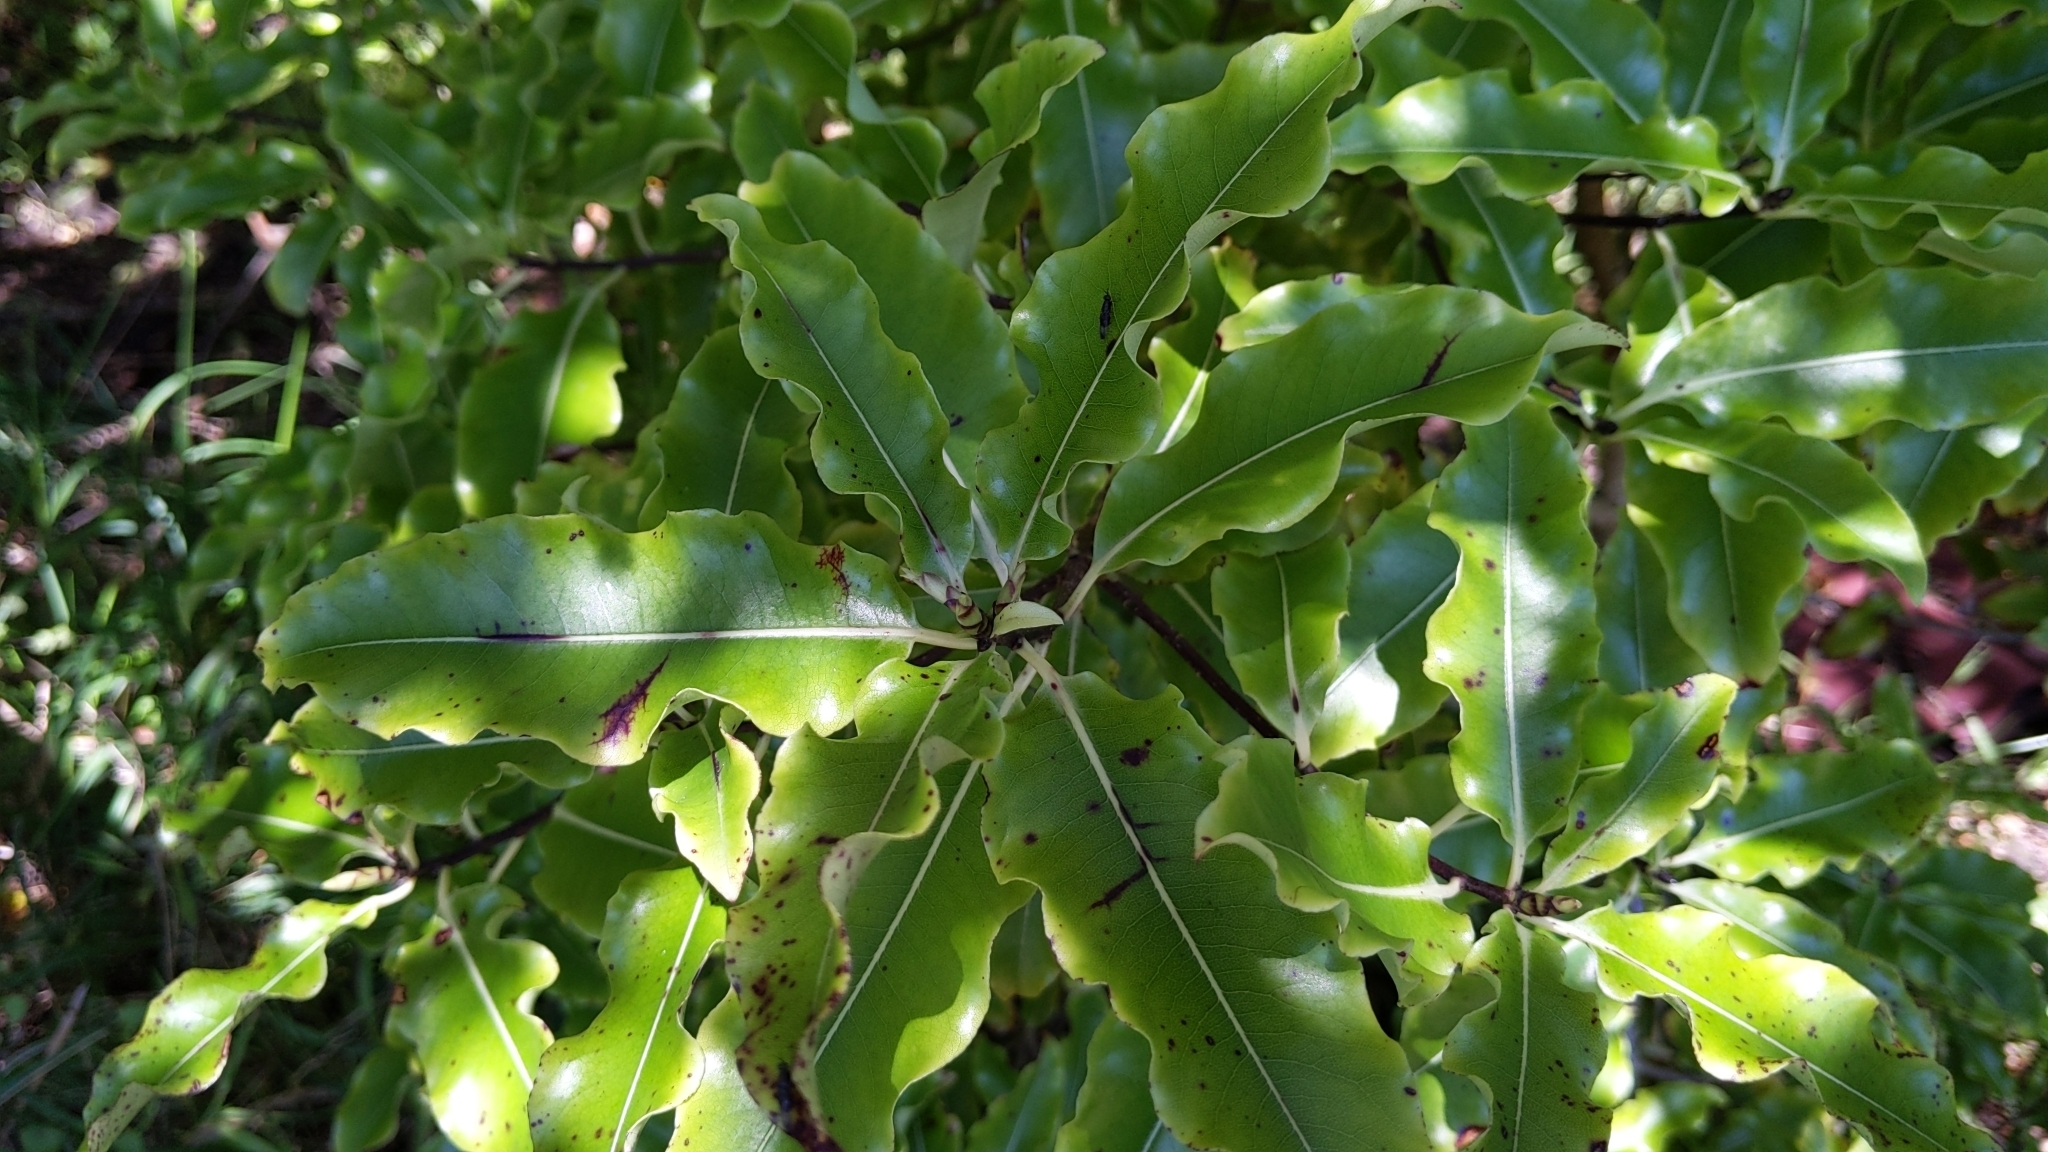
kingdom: Plantae
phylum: Tracheophyta
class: Magnoliopsida
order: Apiales
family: Pittosporaceae
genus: Pittosporum
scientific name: Pittosporum eugenioides
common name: Lemonwood
